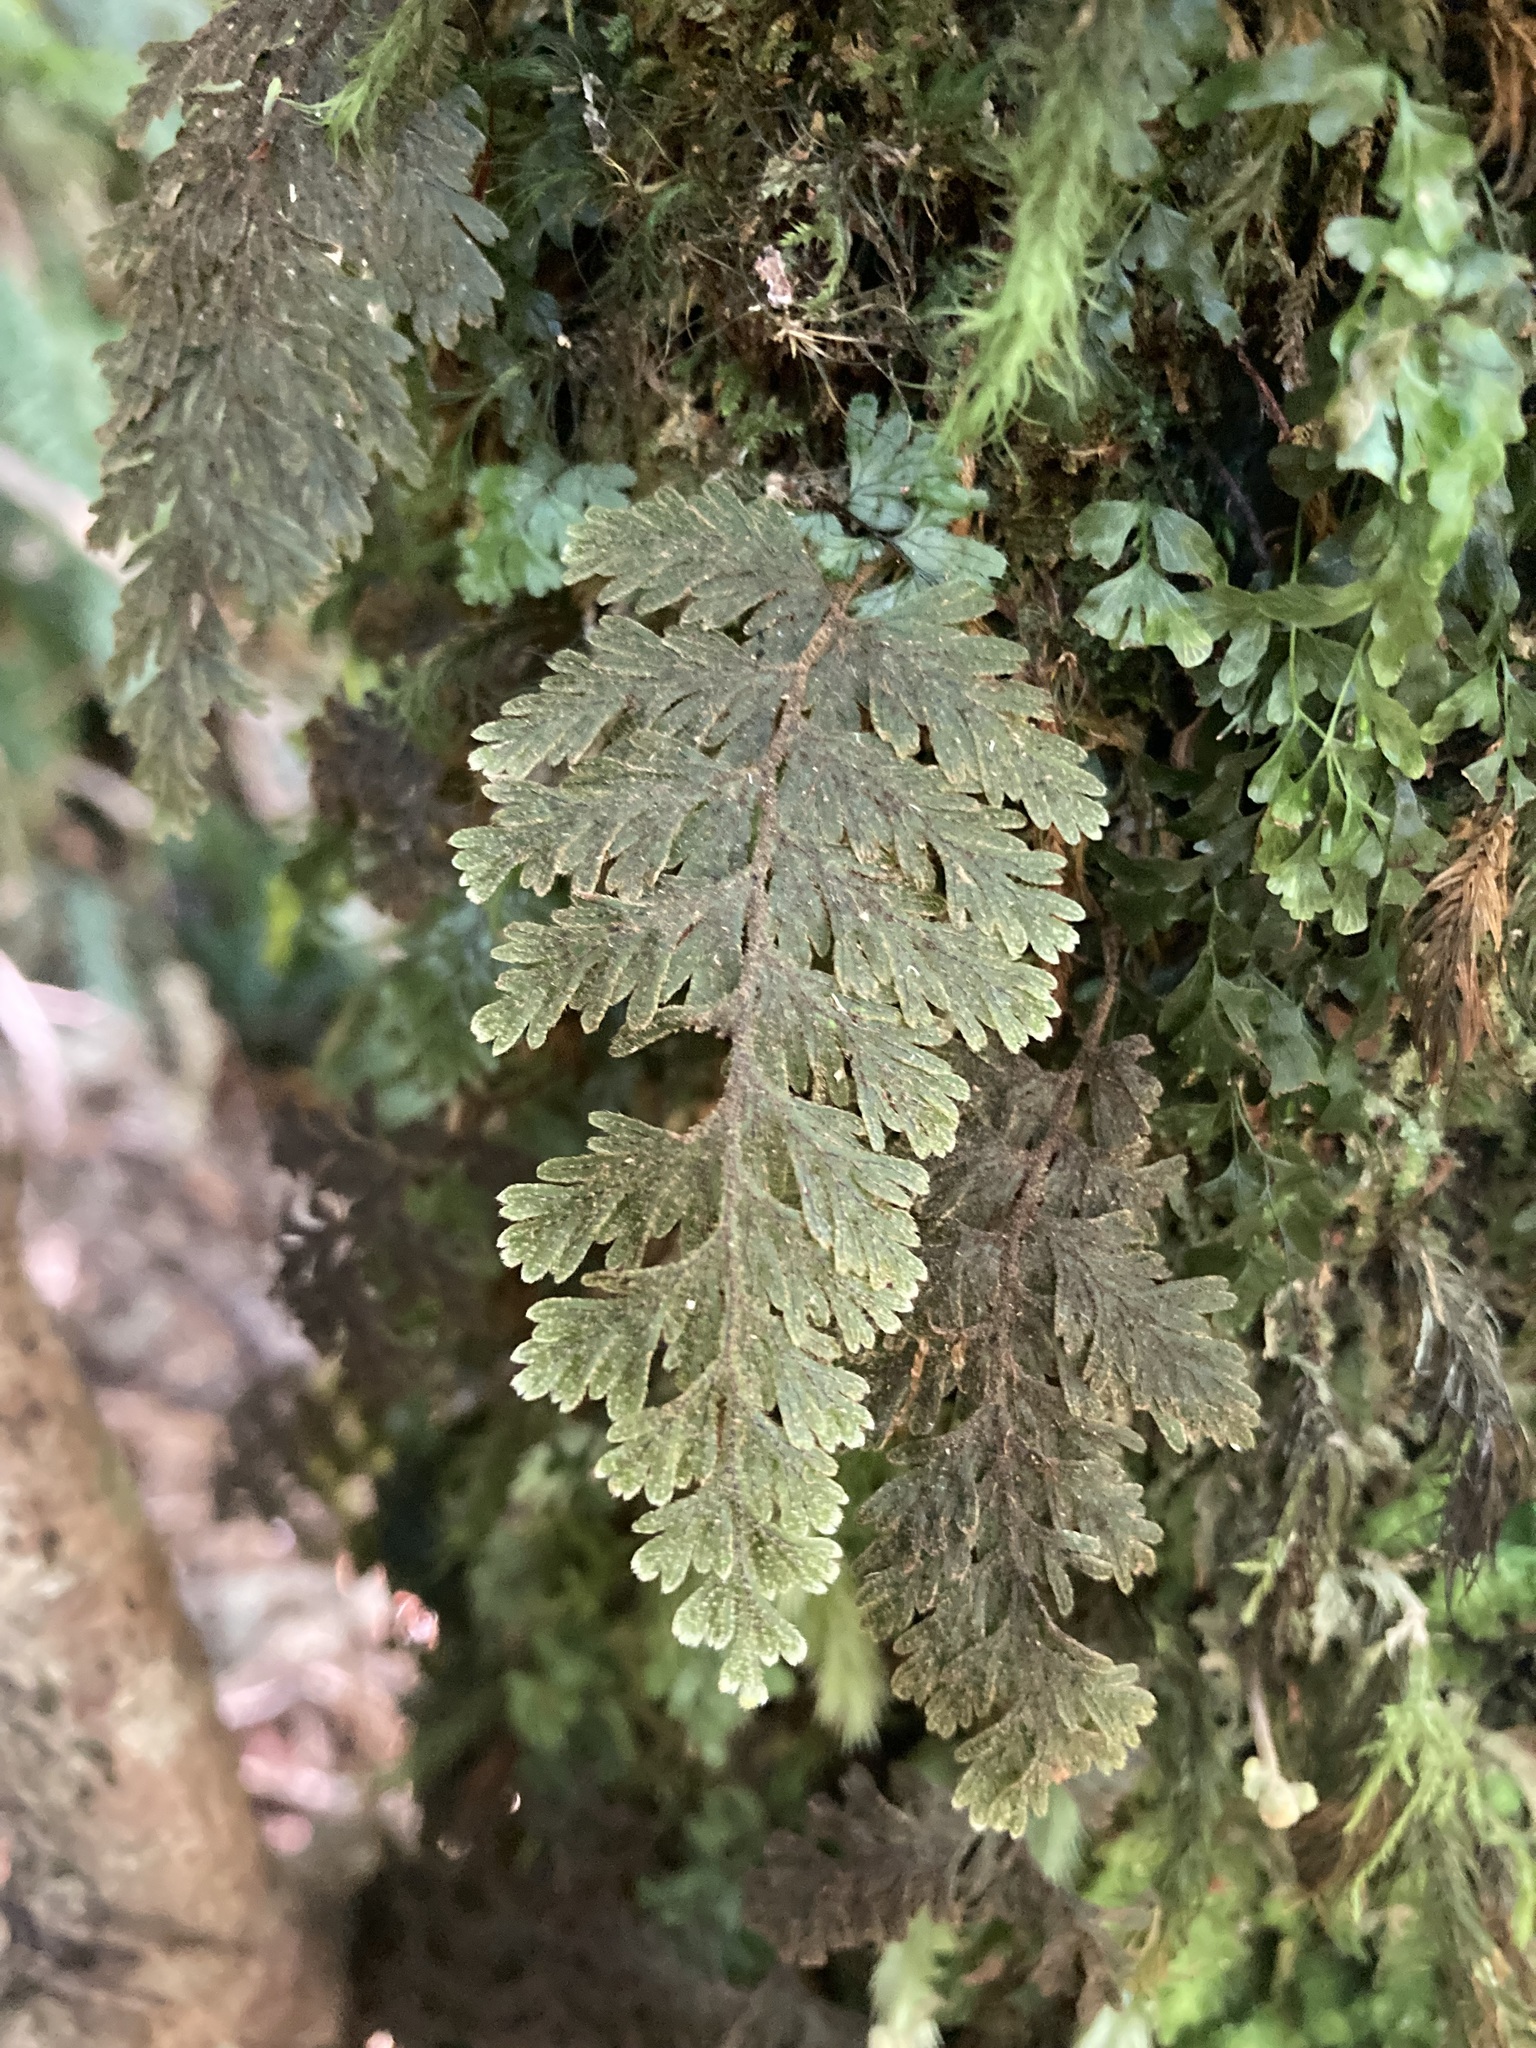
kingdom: Plantae
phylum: Tracheophyta
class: Polypodiopsida
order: Hymenophyllales
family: Hymenophyllaceae
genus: Hymenophyllum
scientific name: Hymenophyllum frankliniae
